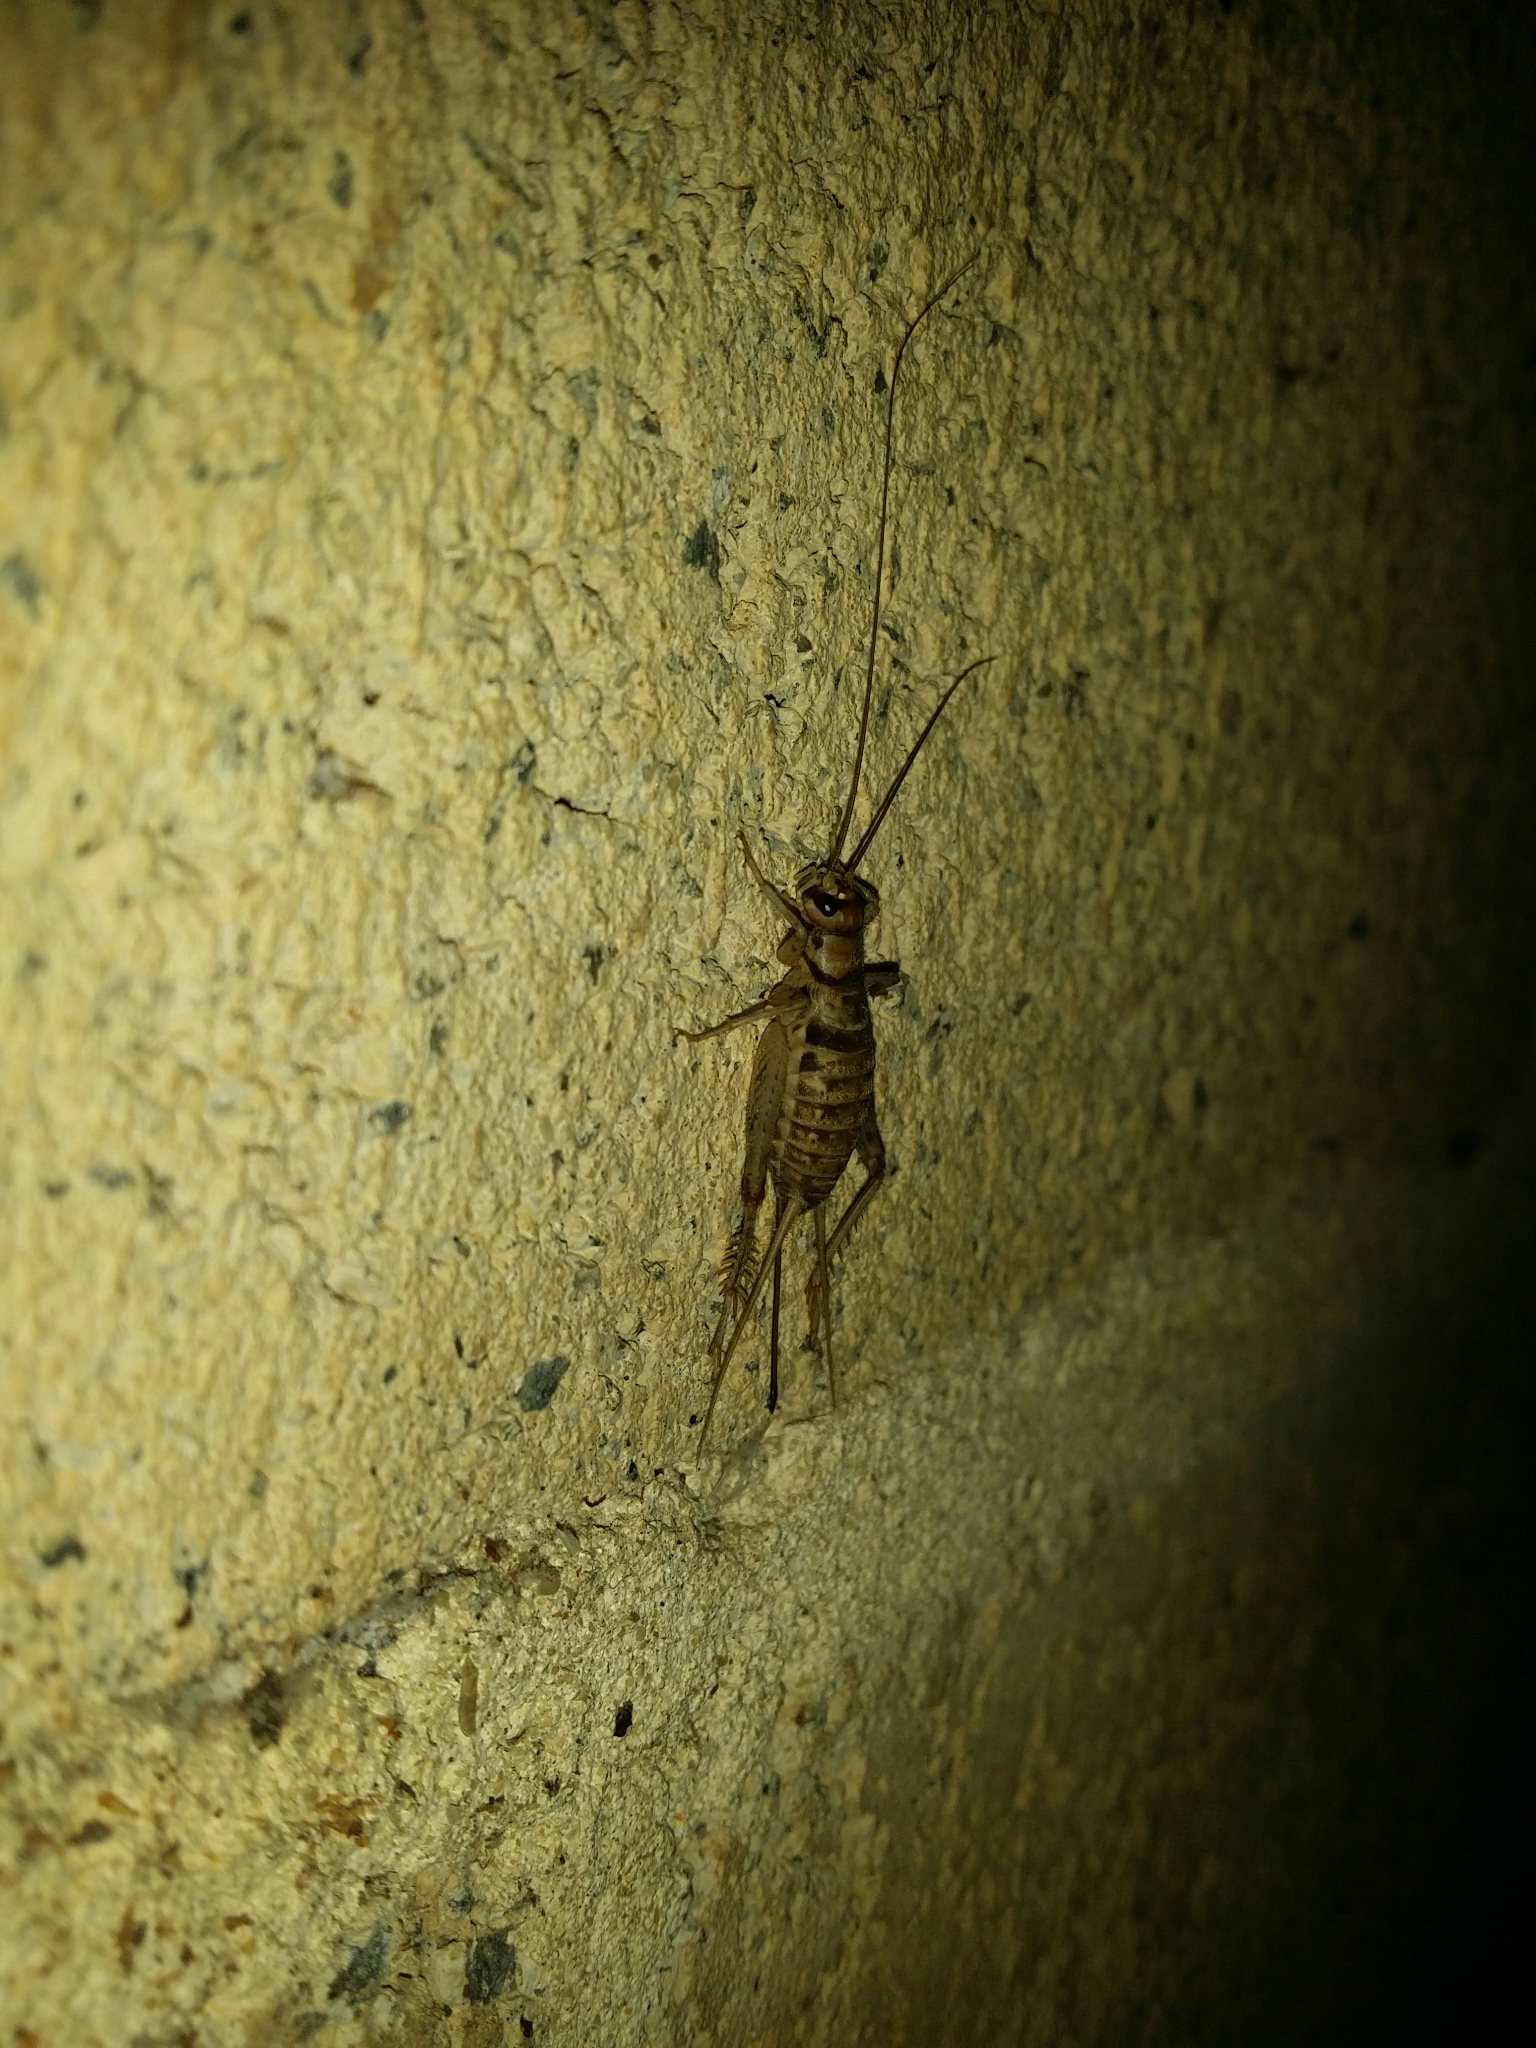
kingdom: Animalia
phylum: Arthropoda
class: Insecta
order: Orthoptera
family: Gryllidae
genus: Gryllodes
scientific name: Gryllodes sigillatus
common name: Tropical house cricket
